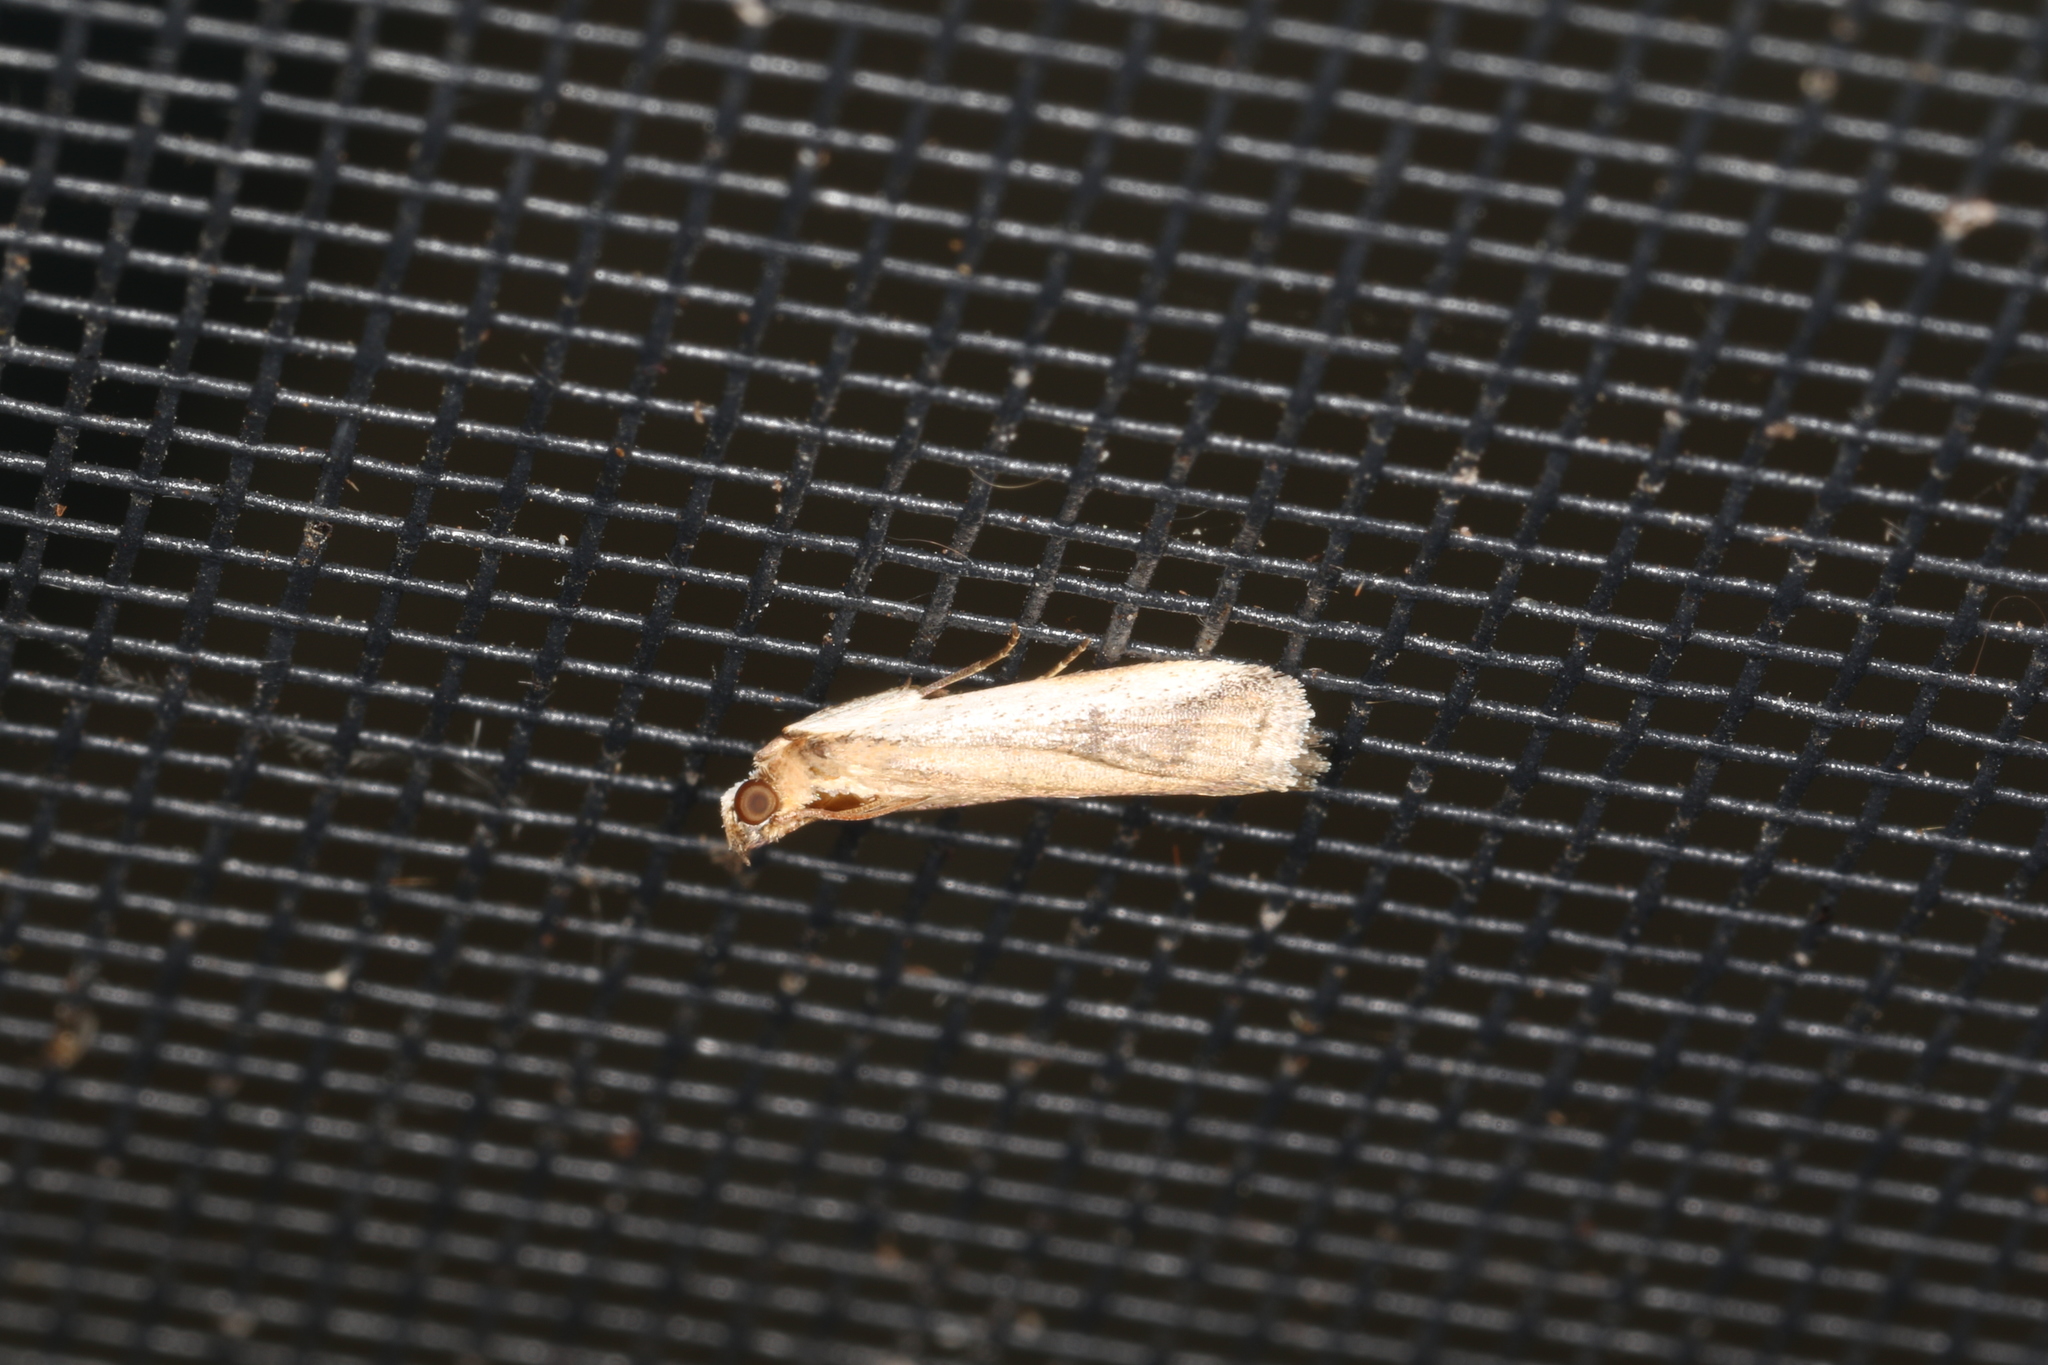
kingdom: Animalia
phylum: Arthropoda
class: Insecta
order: Lepidoptera
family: Pyralidae
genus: Assara
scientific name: Assara subarcuella
